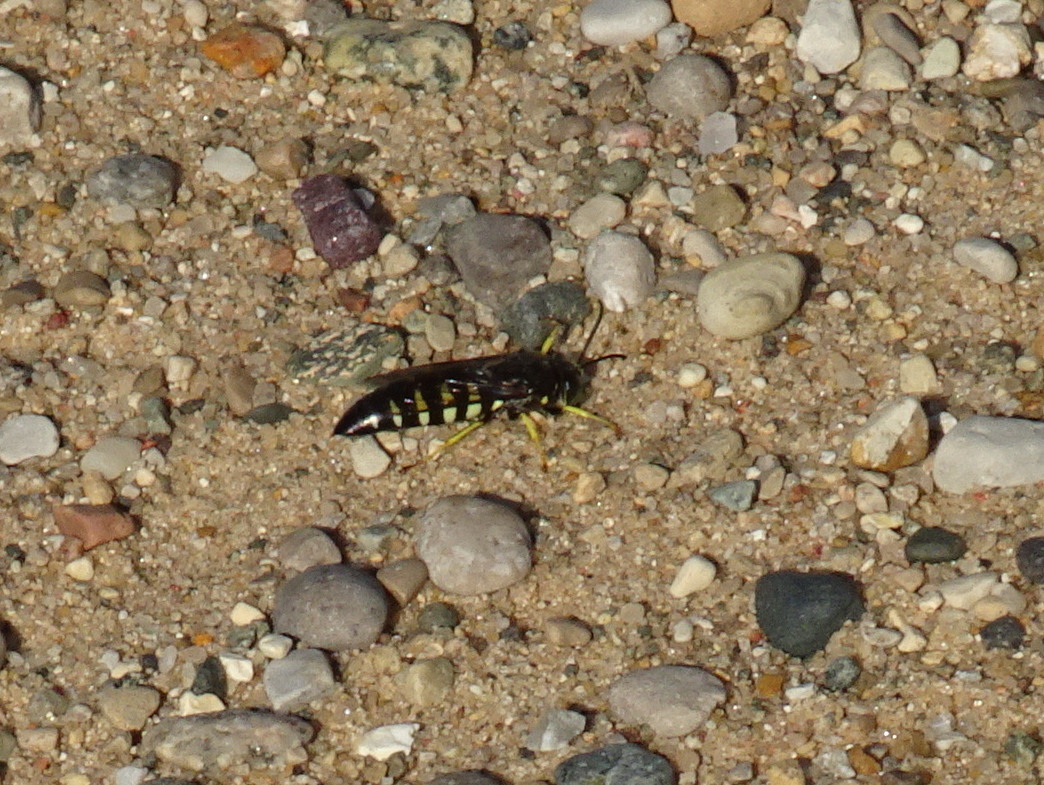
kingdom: Animalia
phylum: Arthropoda
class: Insecta
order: Hymenoptera
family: Crabronidae
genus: Bicyrtes
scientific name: Bicyrtes quadrifasciatus
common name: Four-banded stink bug hunter wasp
